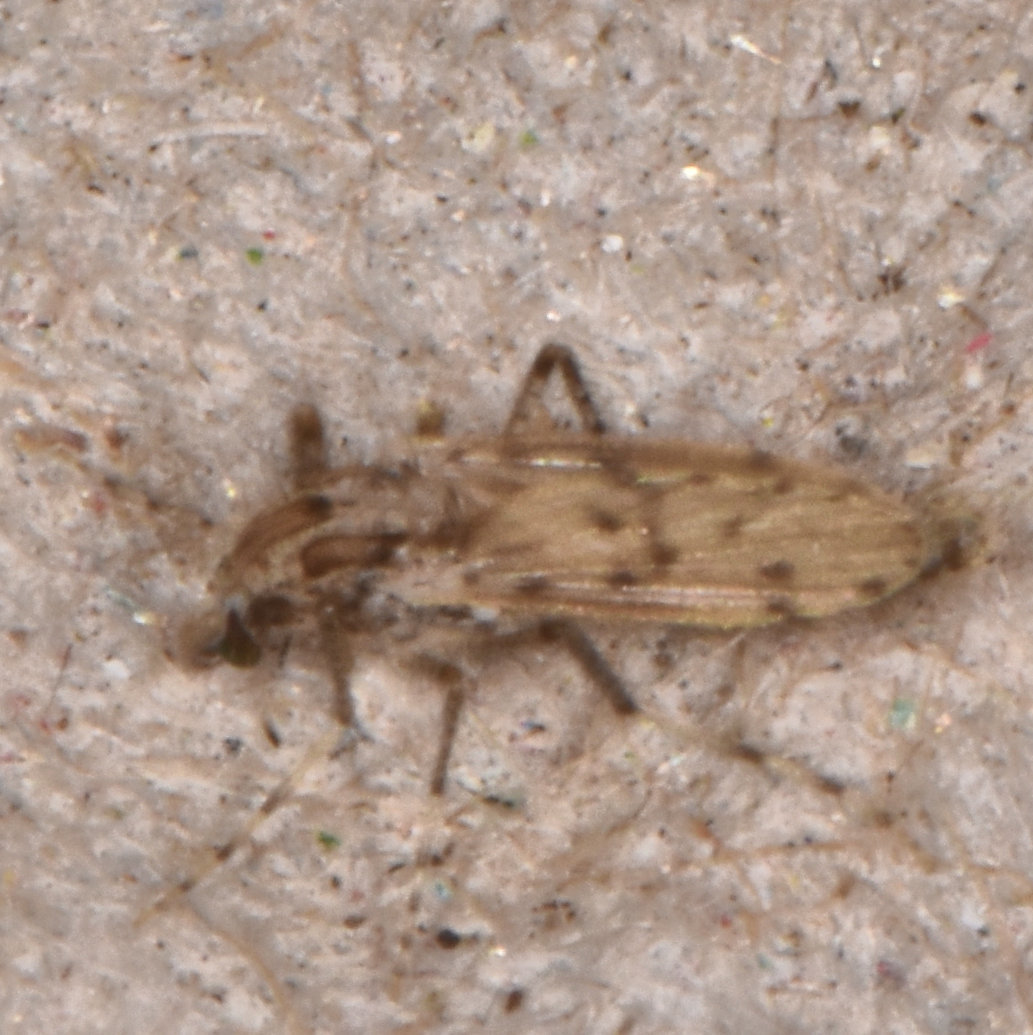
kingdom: Animalia
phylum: Arthropoda
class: Insecta
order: Diptera
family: Chaoboridae
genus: Chaoborus
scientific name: Chaoborus punctipennis
